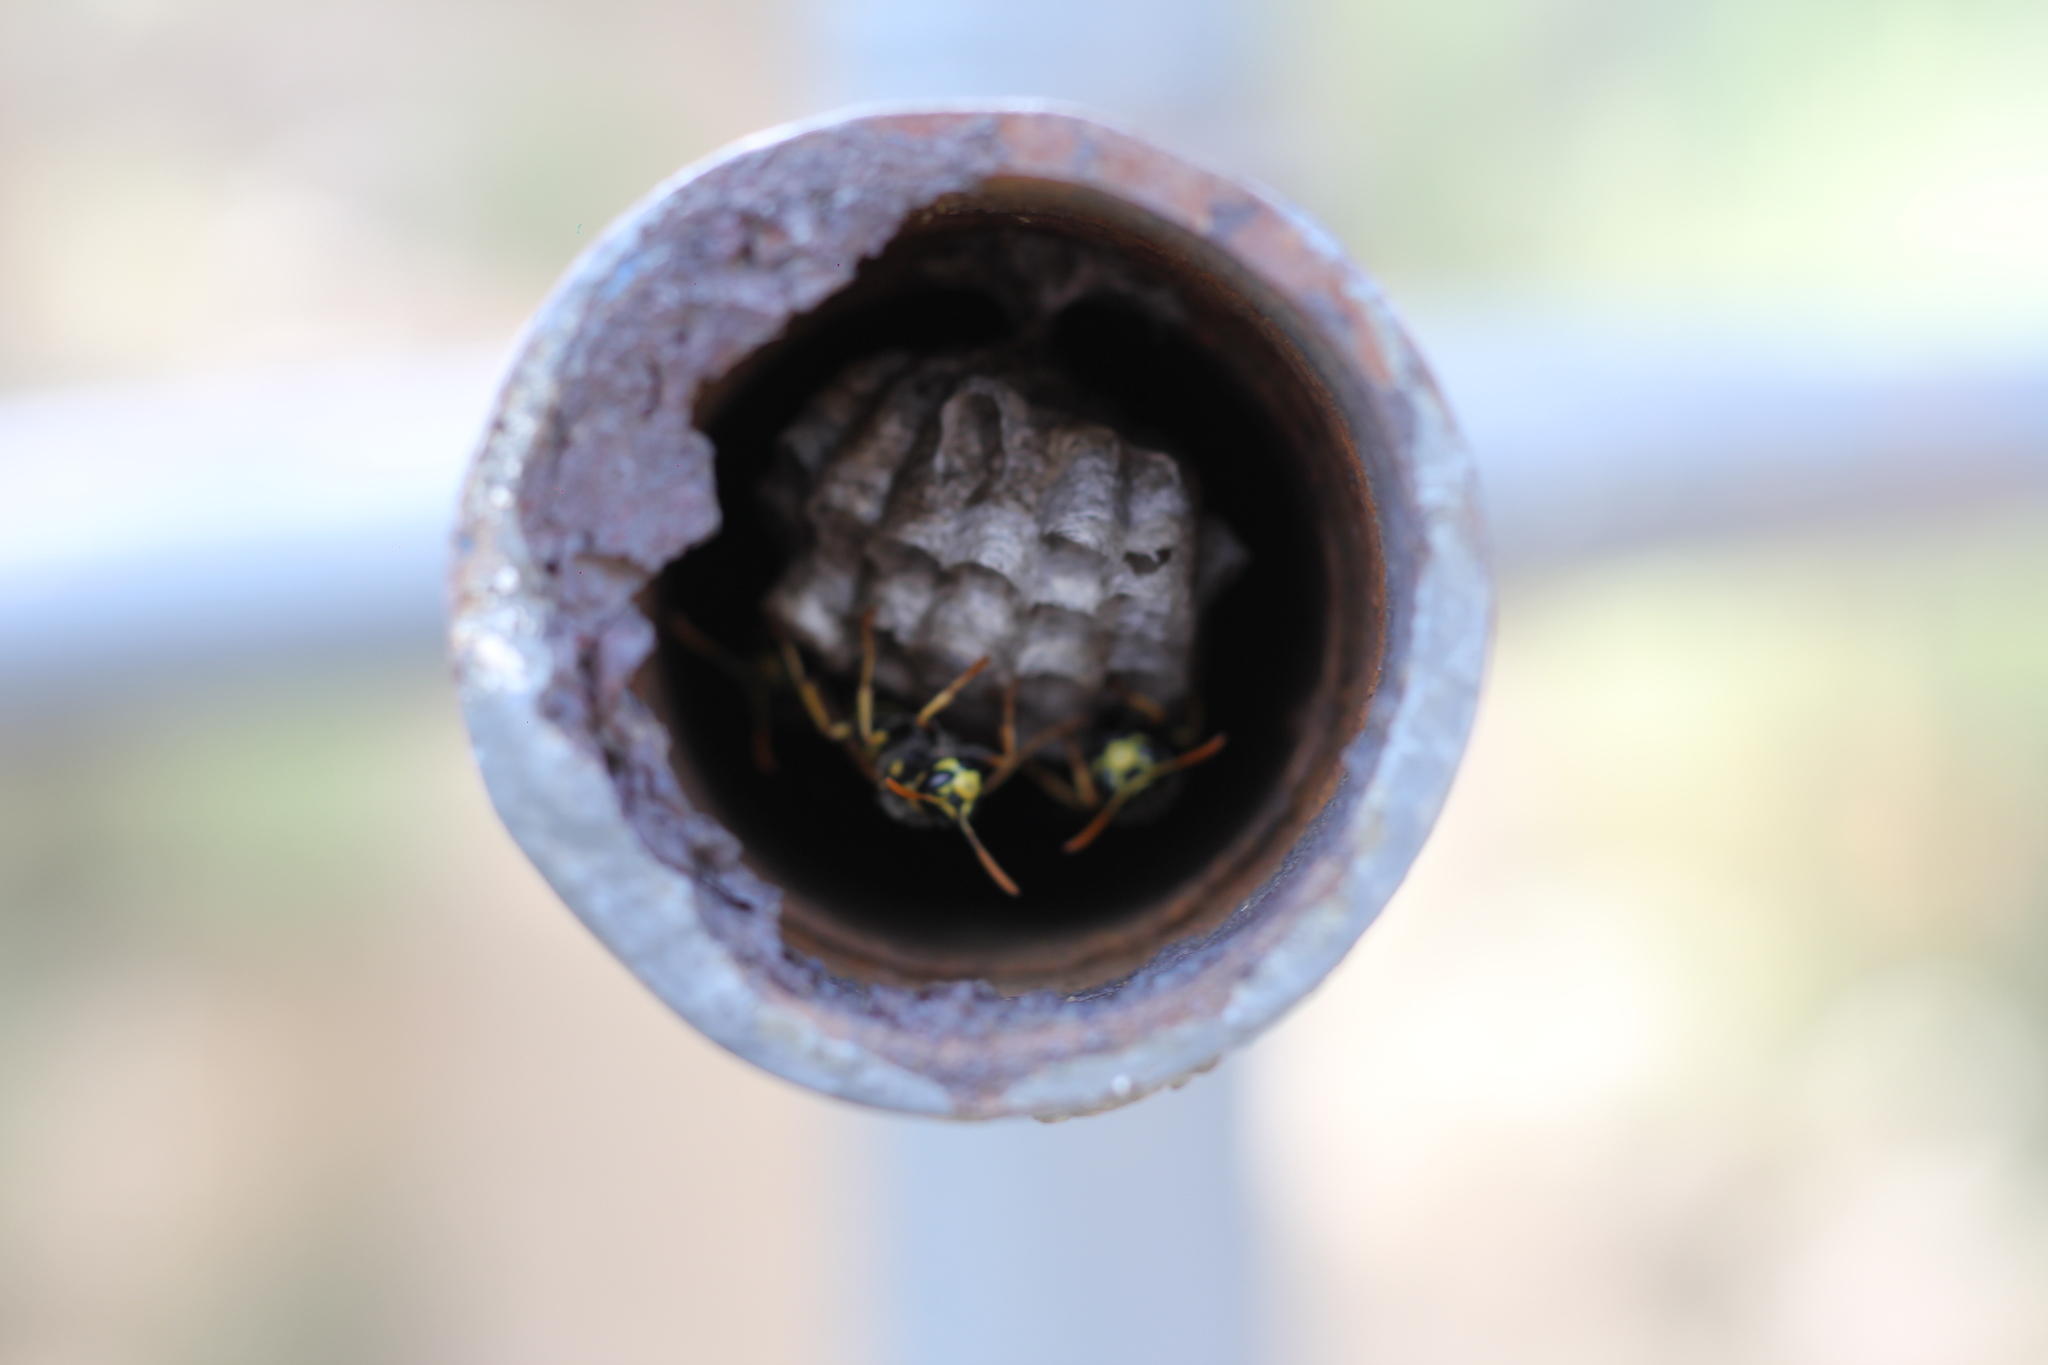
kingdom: Animalia
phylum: Arthropoda
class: Insecta
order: Hymenoptera
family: Eumenidae
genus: Polistes
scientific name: Polistes dominula
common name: Paper wasp
